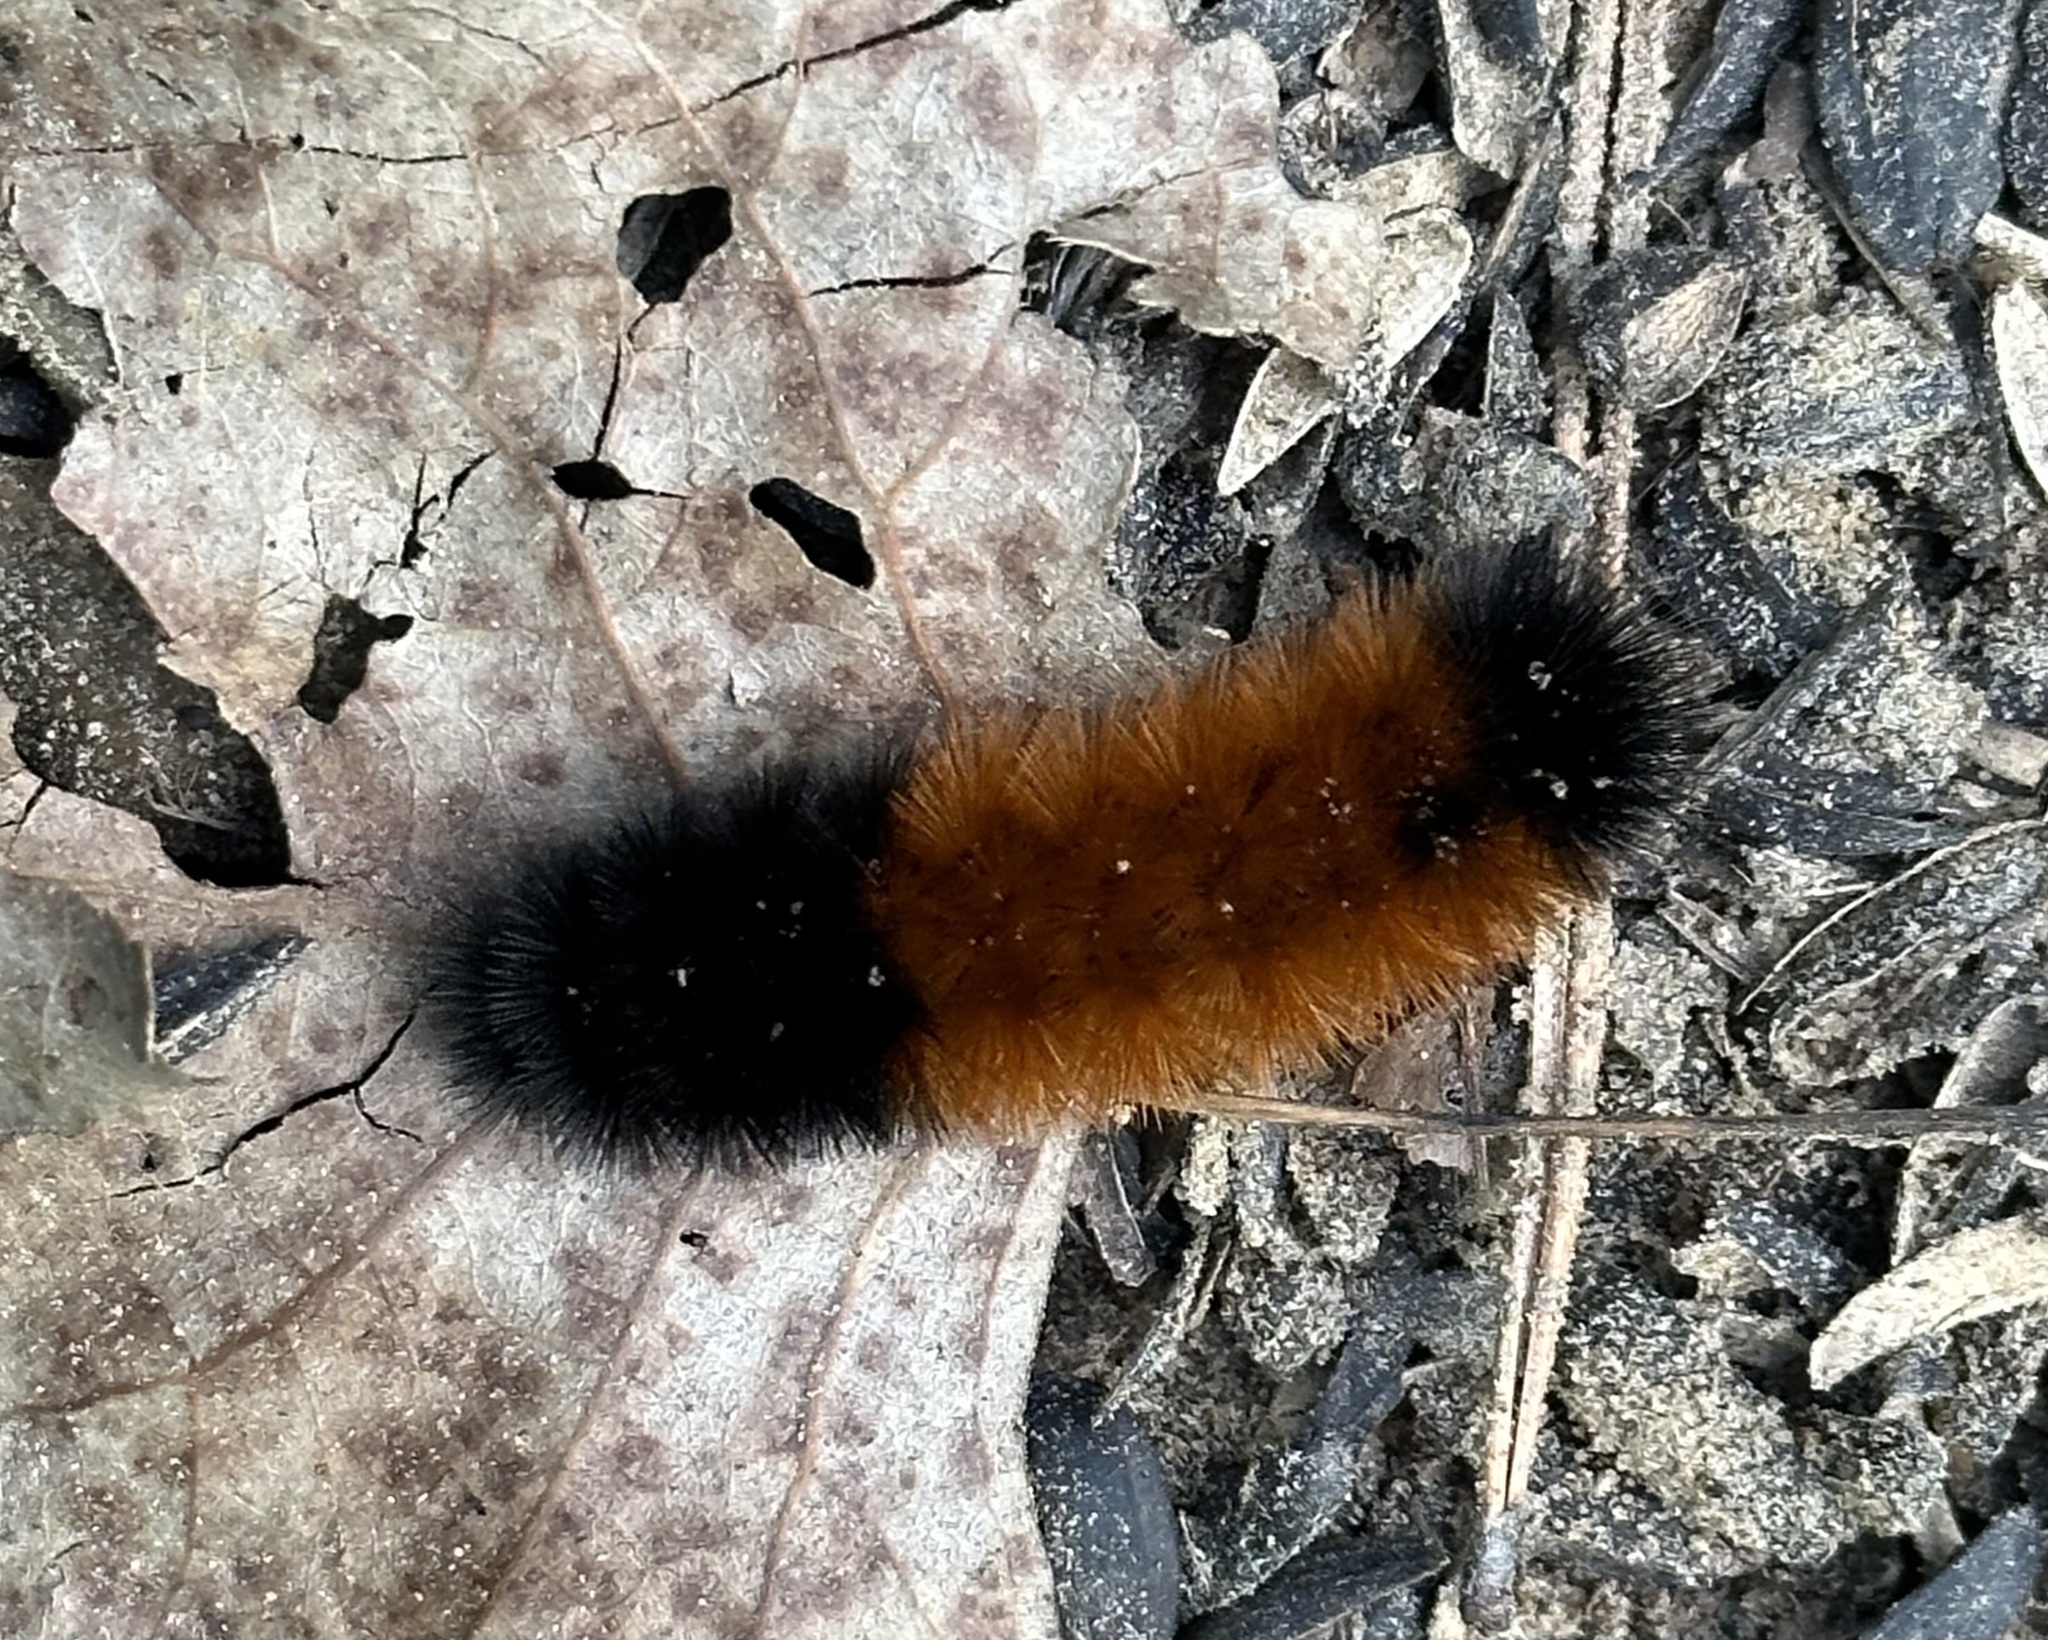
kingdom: Animalia
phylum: Arthropoda
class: Insecta
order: Lepidoptera
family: Erebidae
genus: Pyrrharctia
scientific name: Pyrrharctia isabella
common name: Isabella tiger moth
